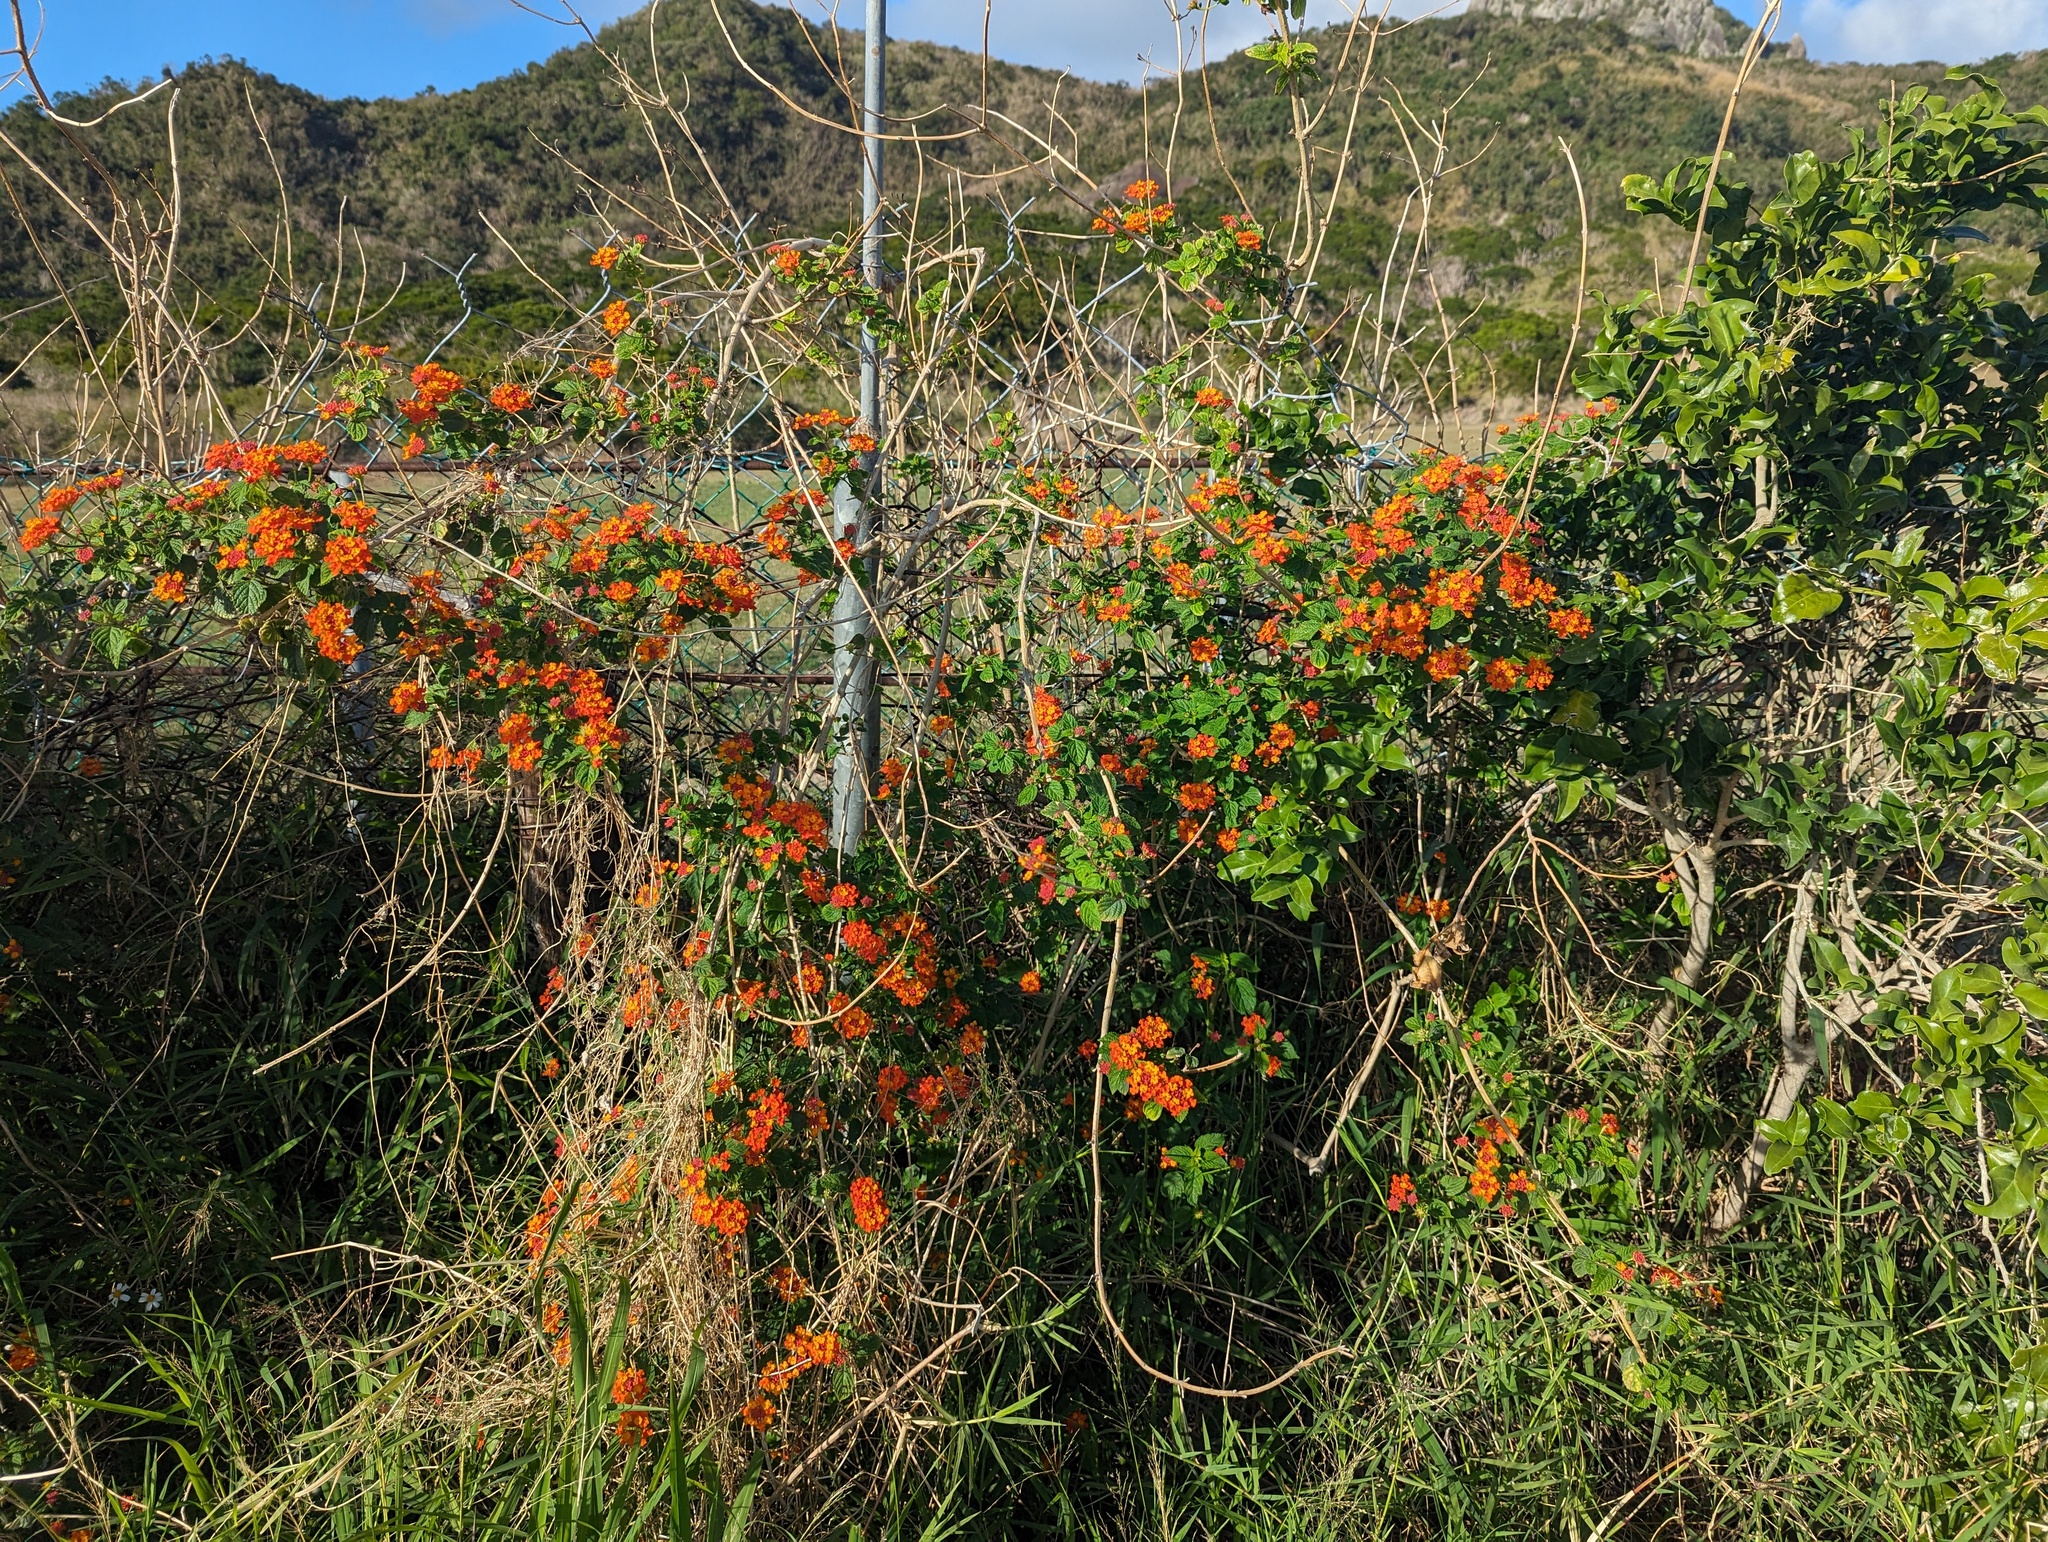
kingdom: Plantae
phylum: Tracheophyta
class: Magnoliopsida
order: Lamiales
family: Verbenaceae
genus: Lantana
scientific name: Lantana camara
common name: Lantana
